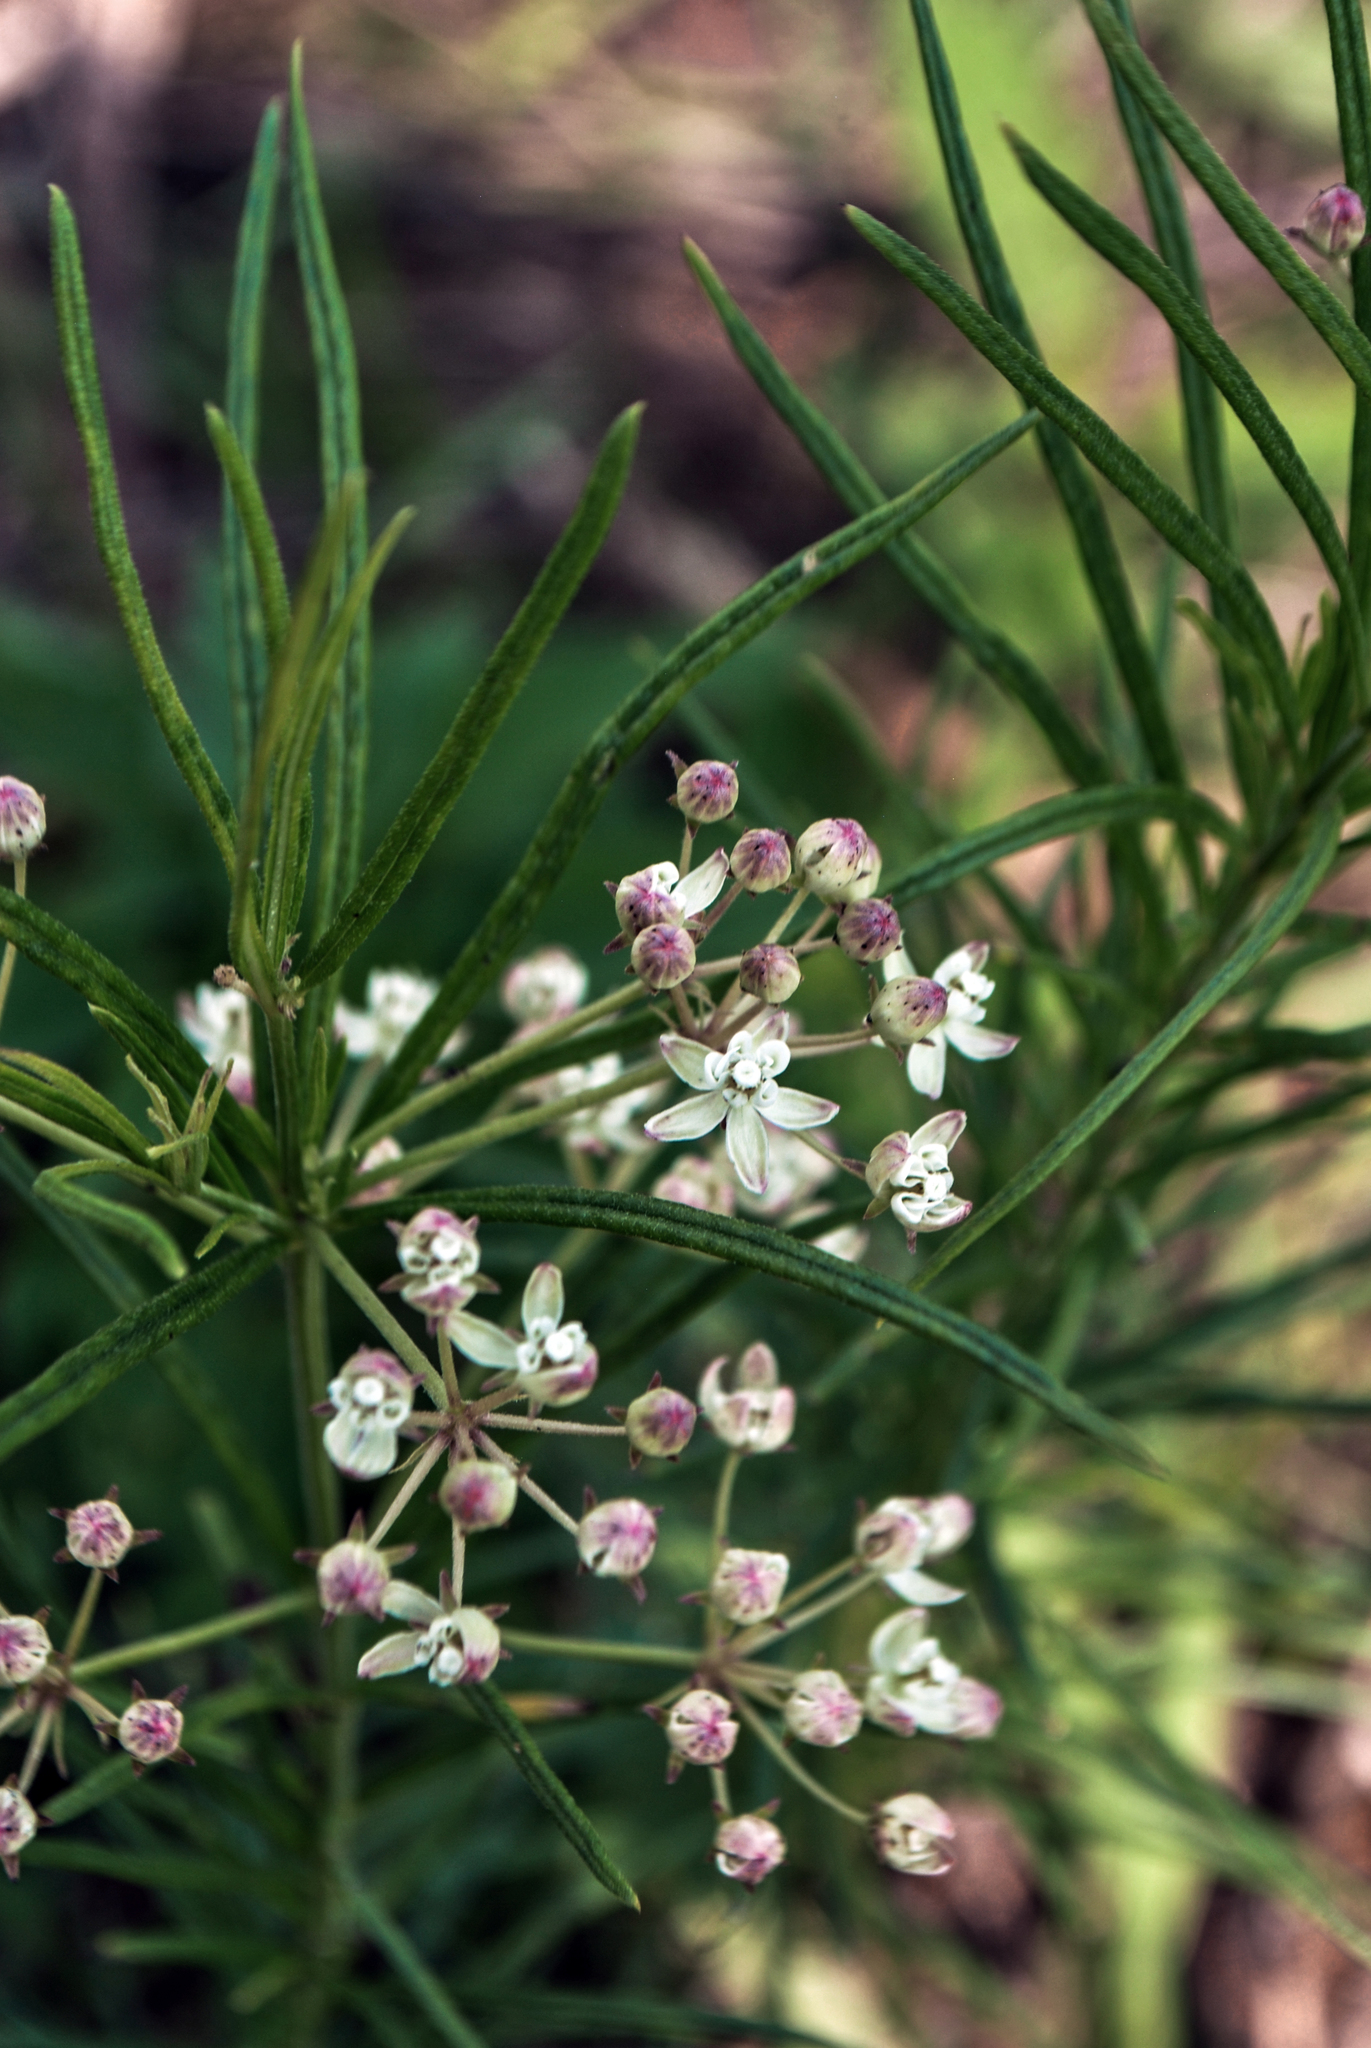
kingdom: Plantae
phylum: Tracheophyta
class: Magnoliopsida
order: Gentianales
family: Apocynaceae
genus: Asclepias
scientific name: Asclepias verticillata
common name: Eastern whorled milkweed
